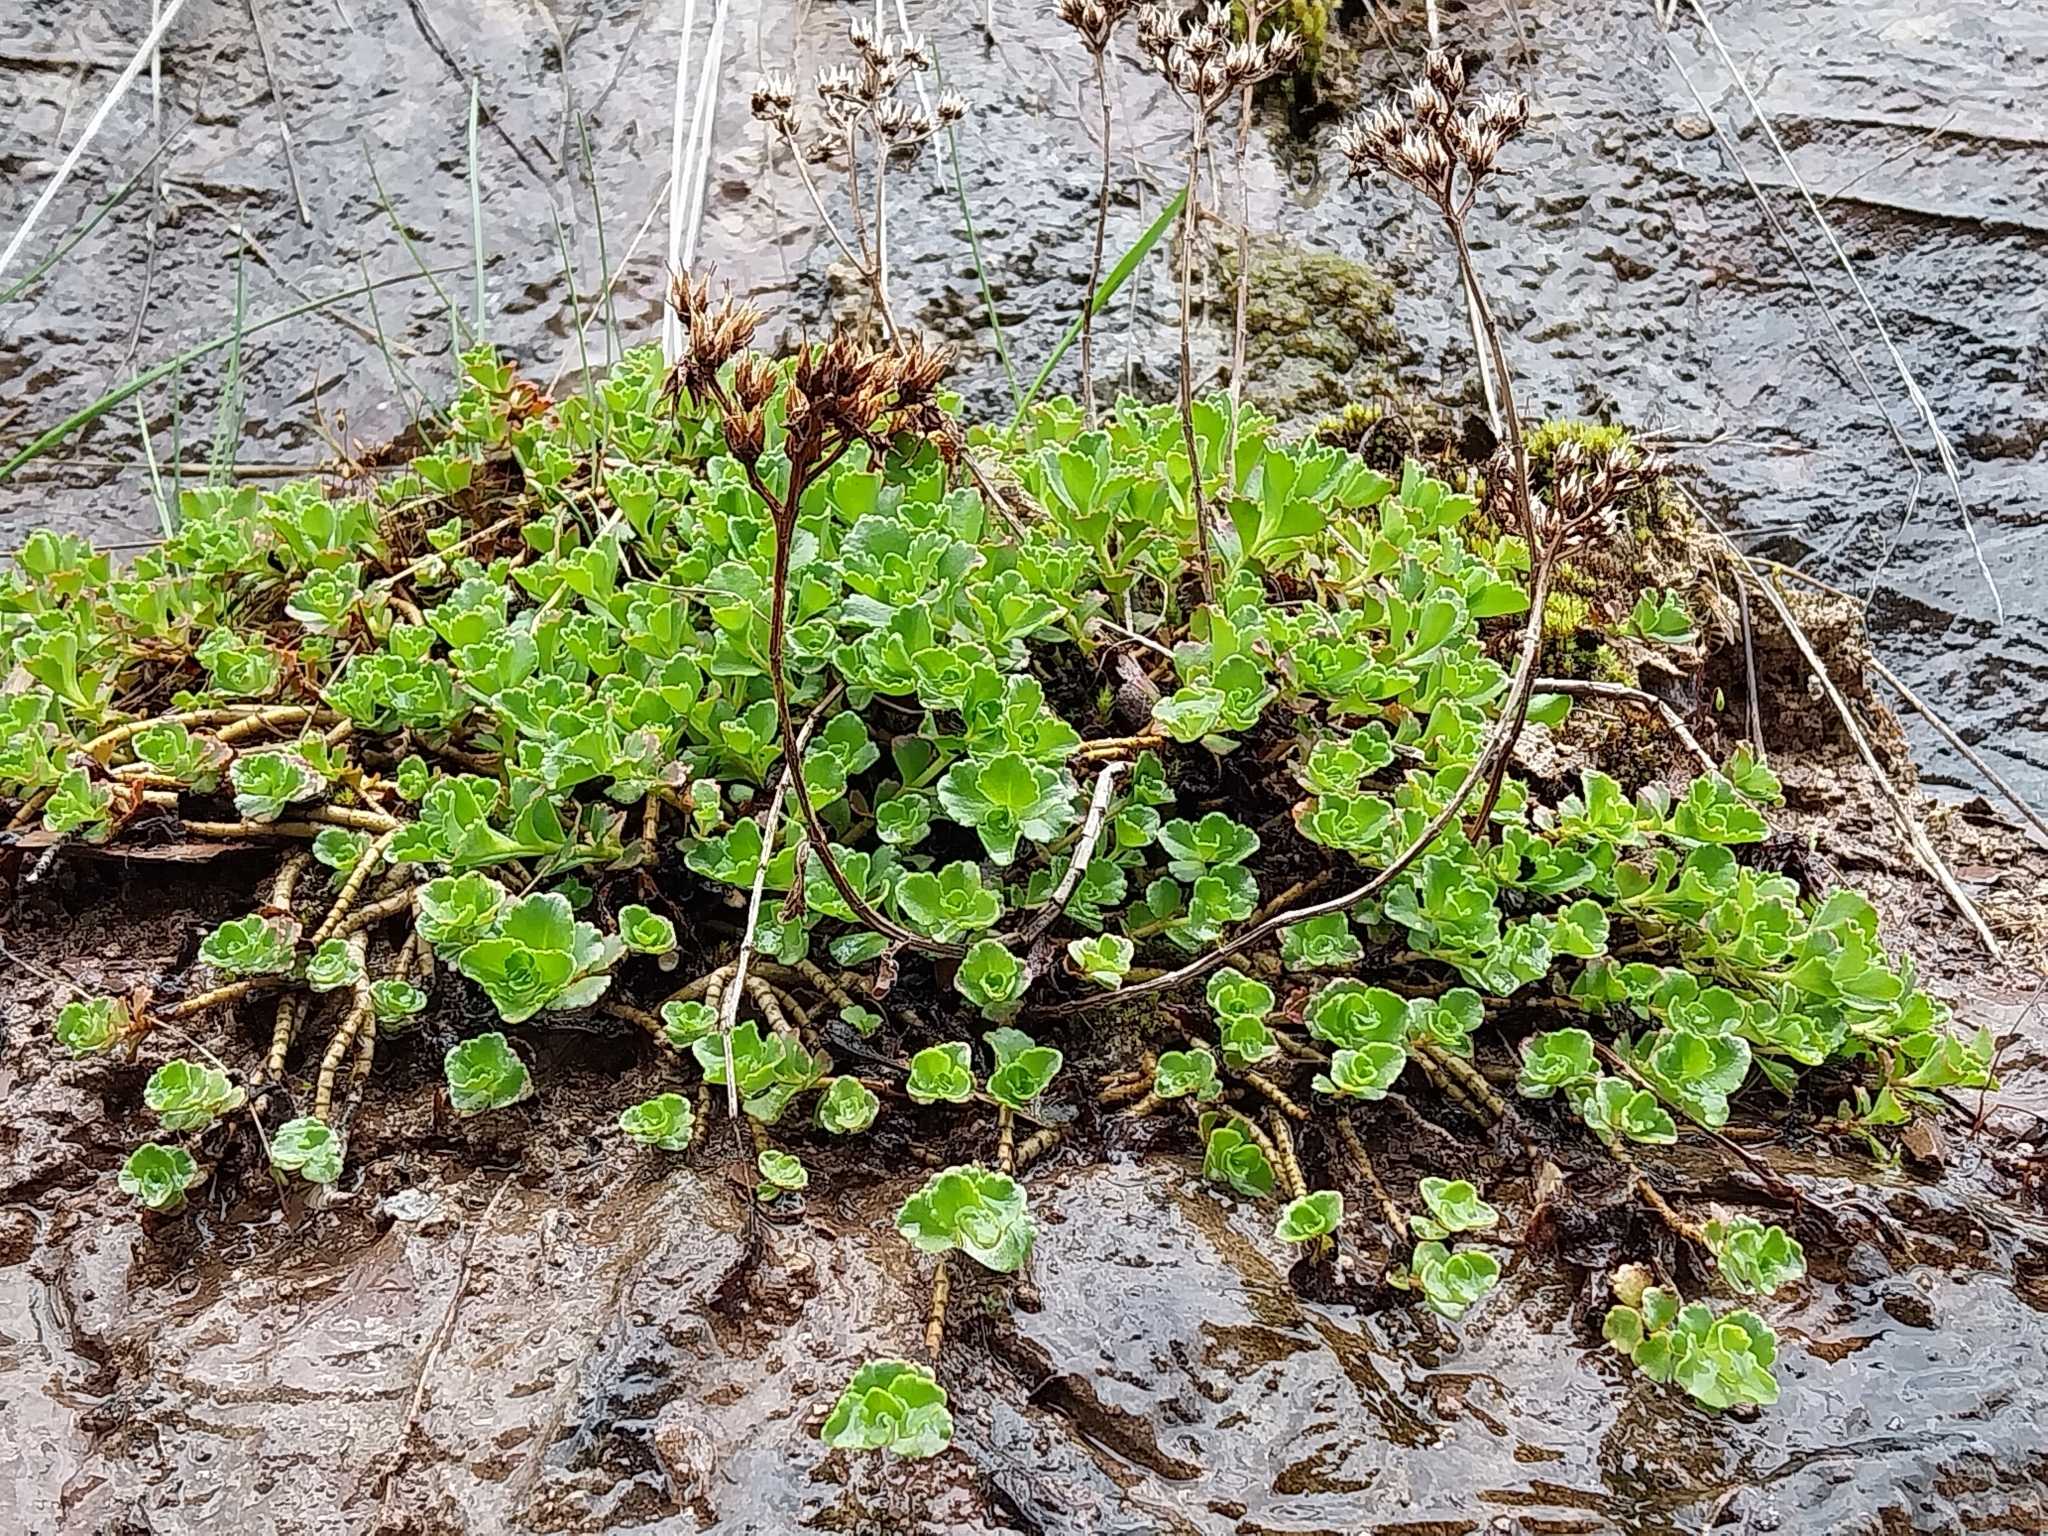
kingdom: Plantae
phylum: Tracheophyta
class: Magnoliopsida
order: Saxifragales
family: Crassulaceae
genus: Phedimus
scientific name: Phedimus spurius
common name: Caucasian stonecrop
